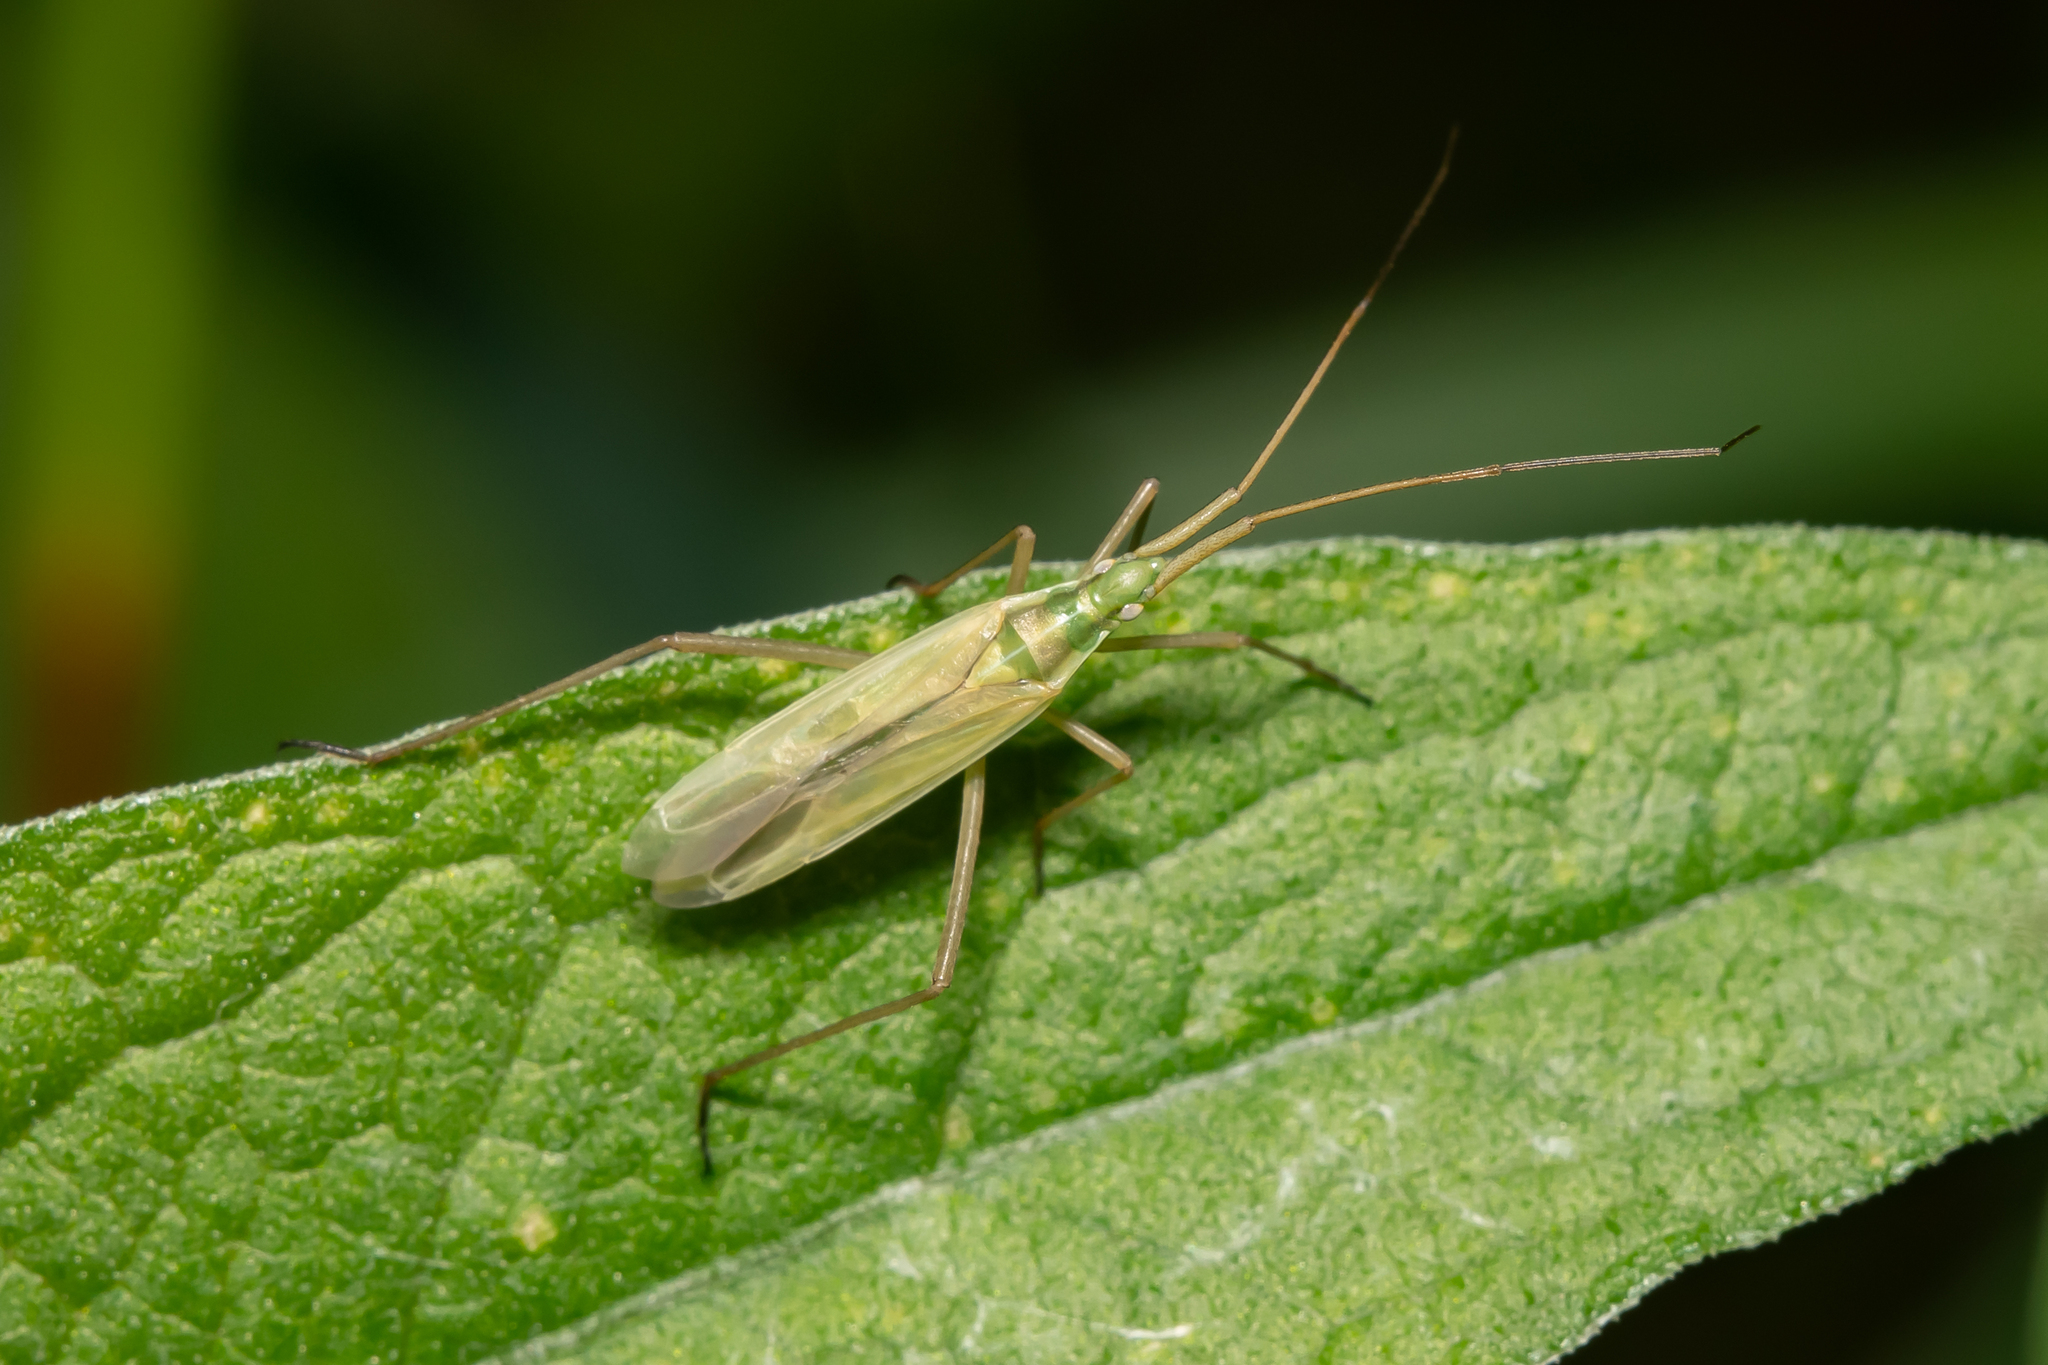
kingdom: Animalia
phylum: Arthropoda
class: Insecta
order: Hemiptera
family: Miridae
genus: Megaloceroea
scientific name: Megaloceroea recticornis
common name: Plant bug
